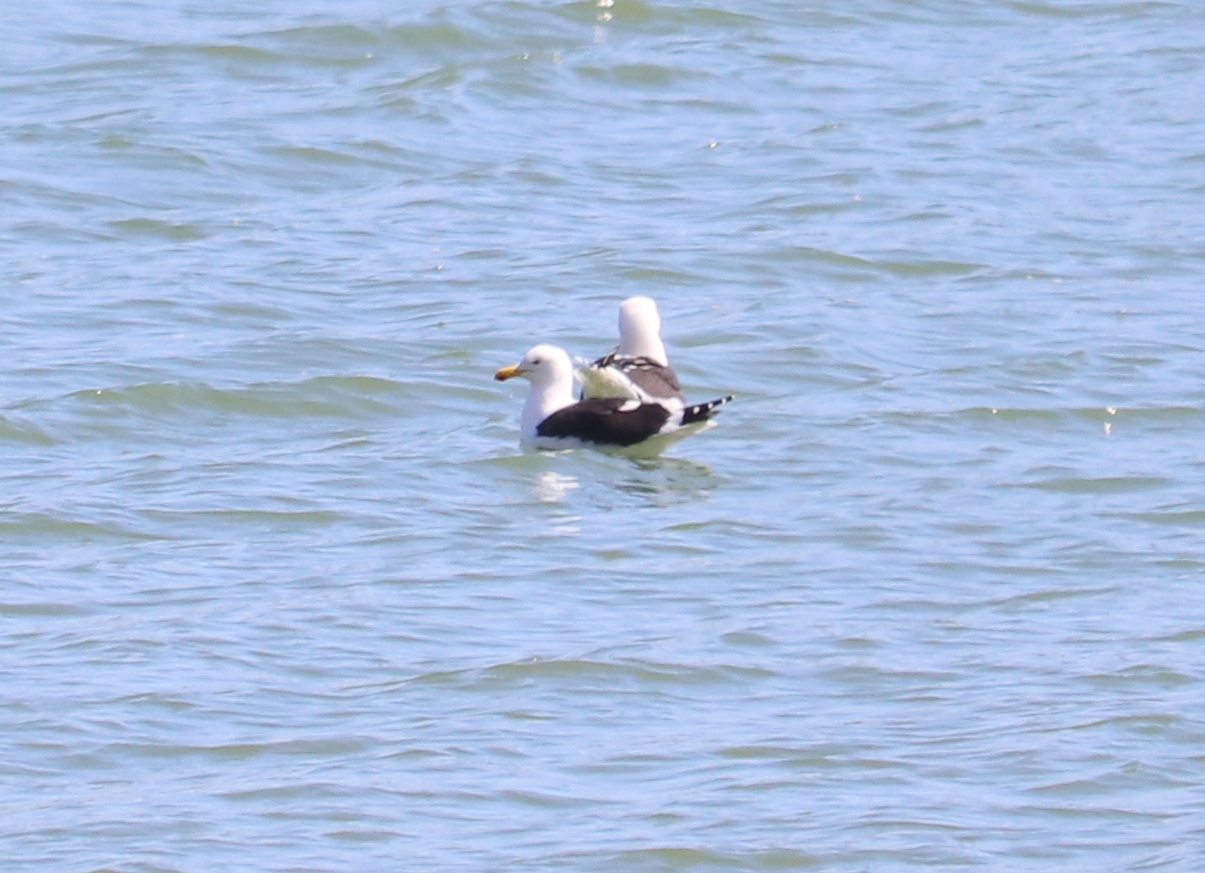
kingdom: Animalia
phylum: Chordata
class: Aves
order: Charadriiformes
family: Laridae
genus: Larus
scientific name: Larus dominicanus
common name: Kelp gull
